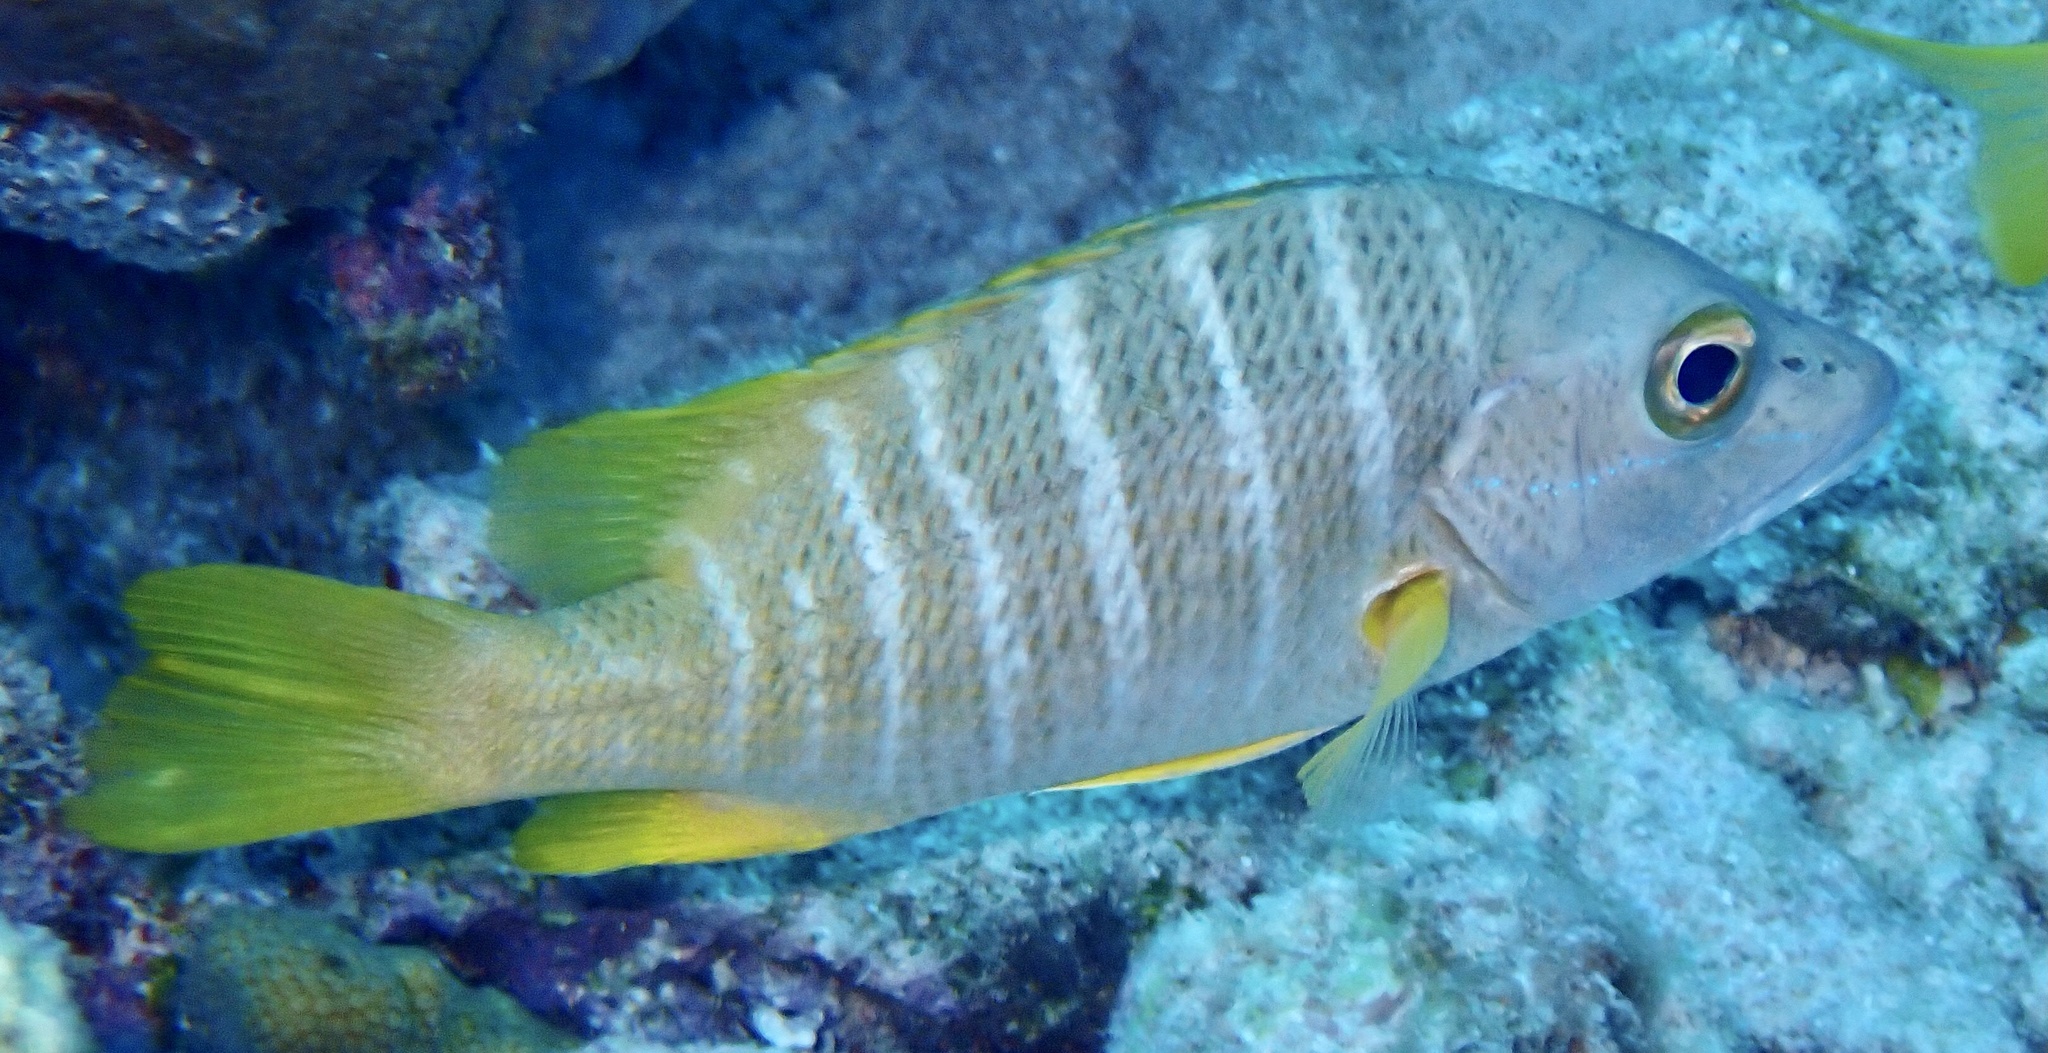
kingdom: Animalia
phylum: Chordata
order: Perciformes
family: Lutjanidae
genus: Lutjanus
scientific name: Lutjanus apodus
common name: Schoolmaster
